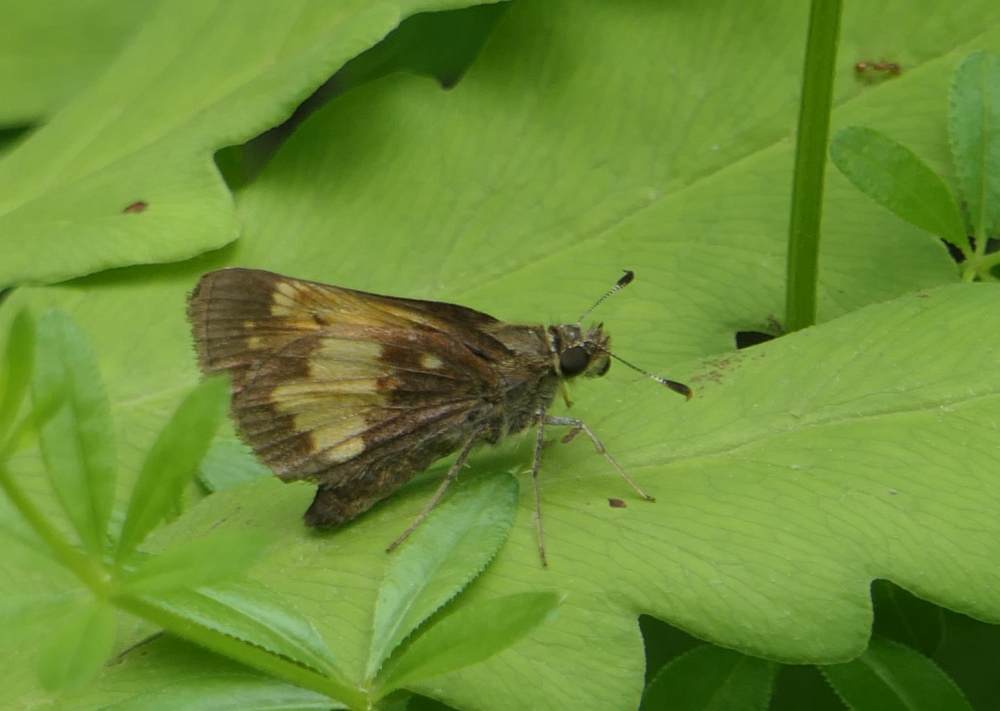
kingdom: Animalia
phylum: Arthropoda
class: Insecta
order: Lepidoptera
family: Hesperiidae
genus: Lon
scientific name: Lon hobomok
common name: Hobomok skipper
